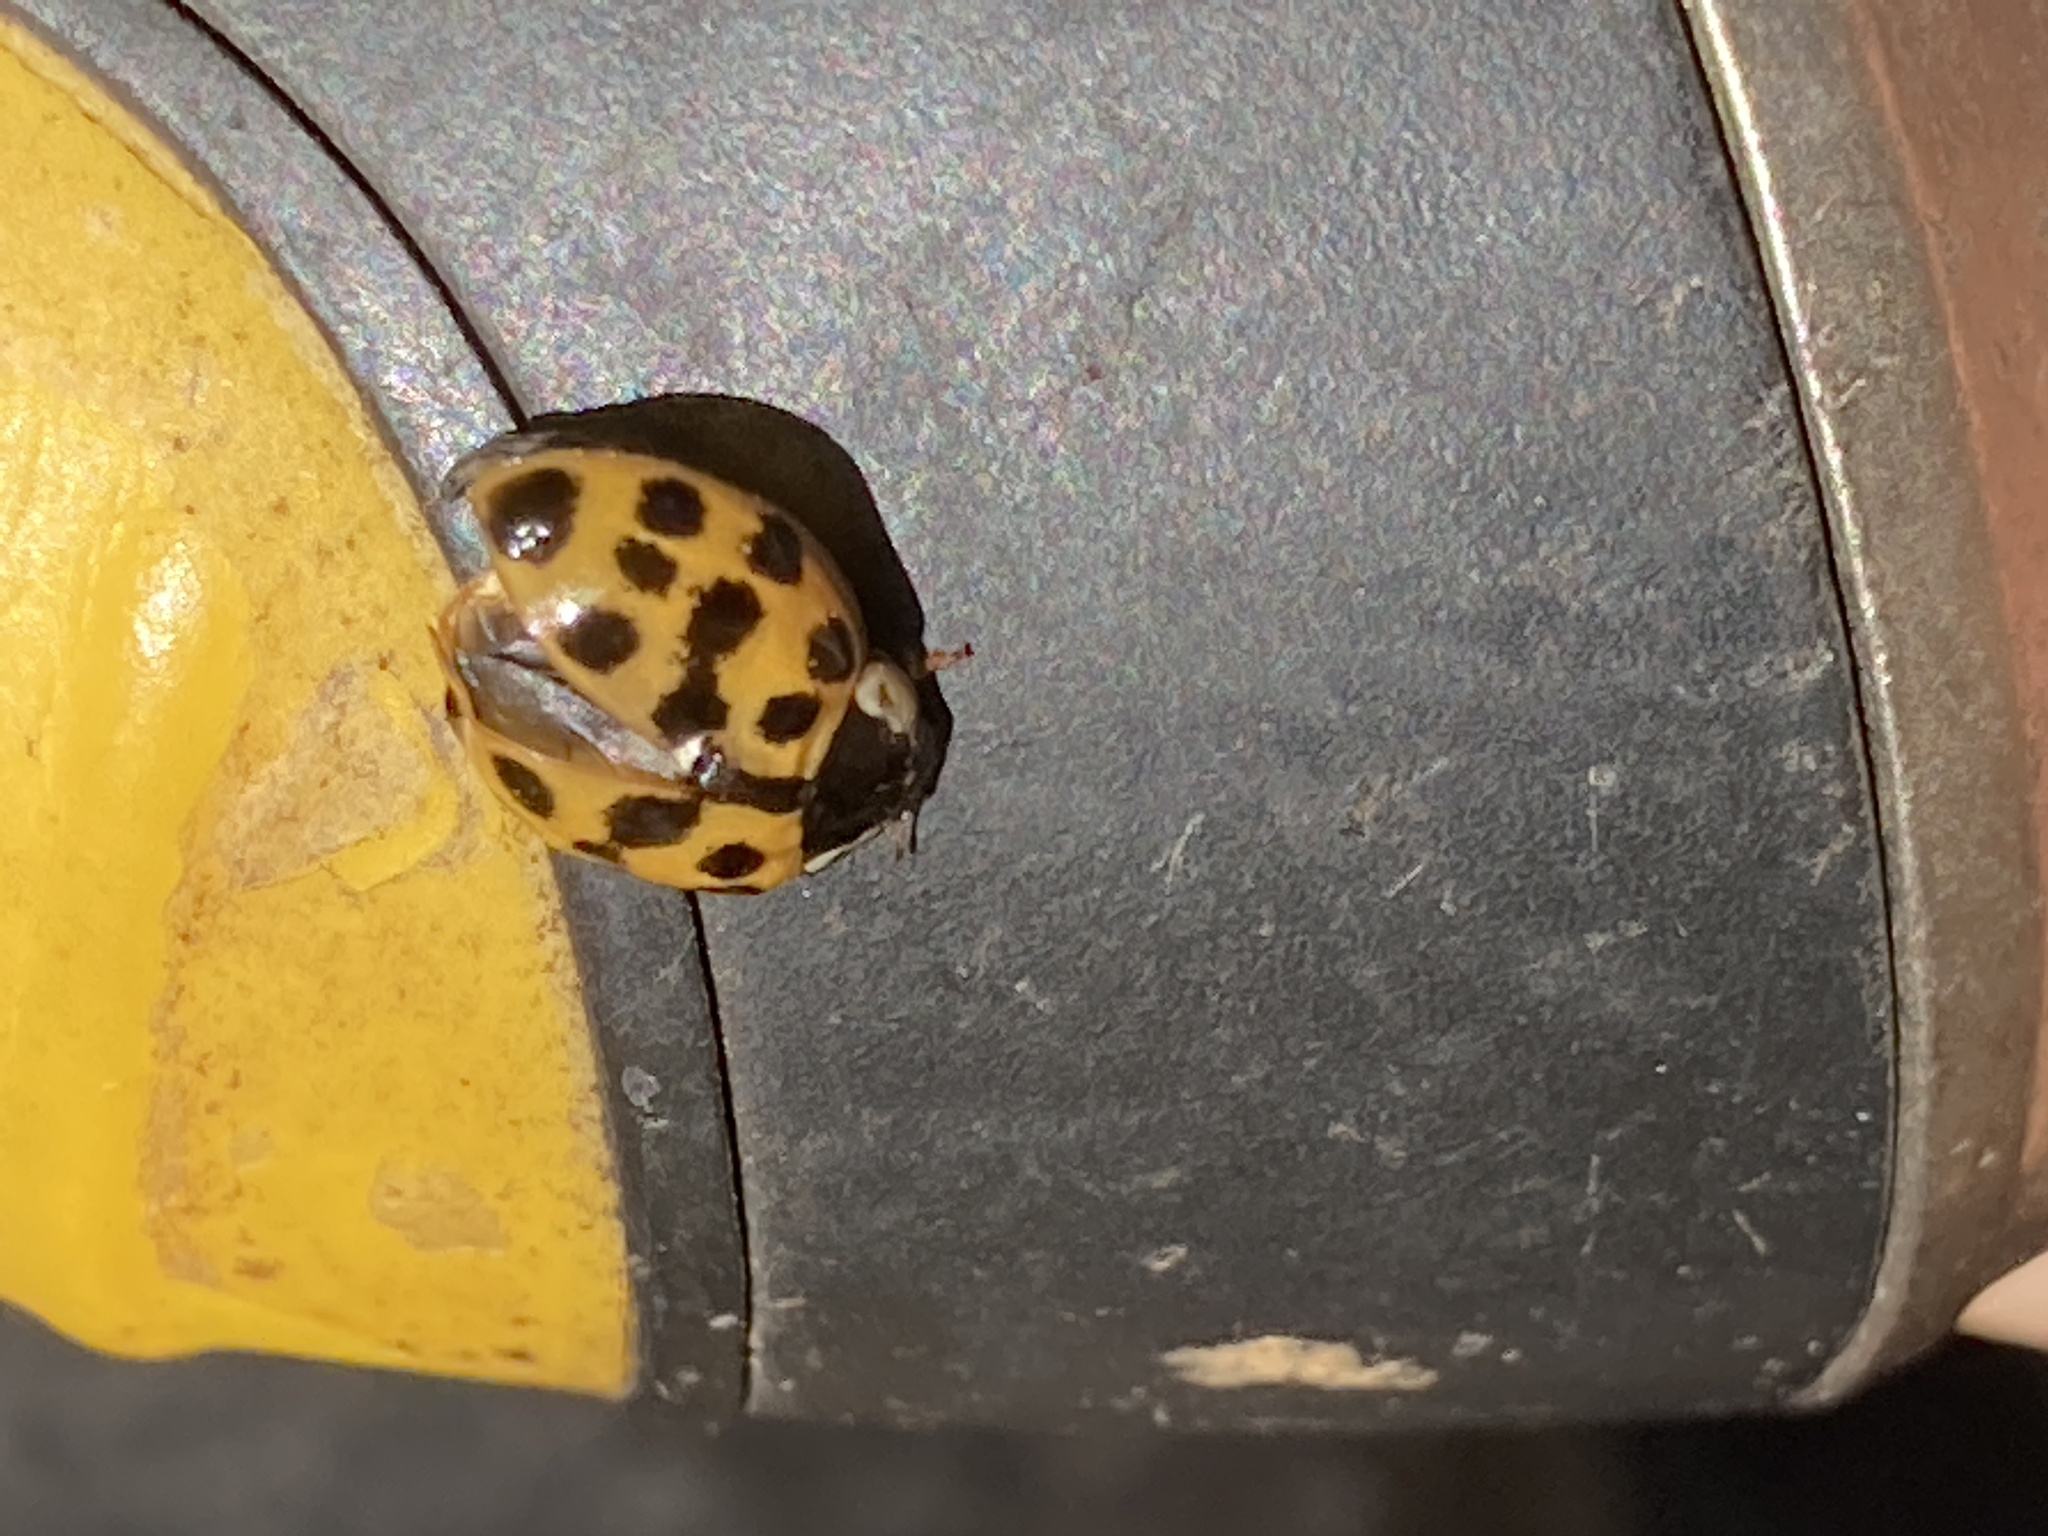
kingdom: Animalia
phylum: Arthropoda
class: Insecta
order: Coleoptera
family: Coccinellidae
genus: Harmonia
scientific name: Harmonia axyridis
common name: Harlequin ladybird
